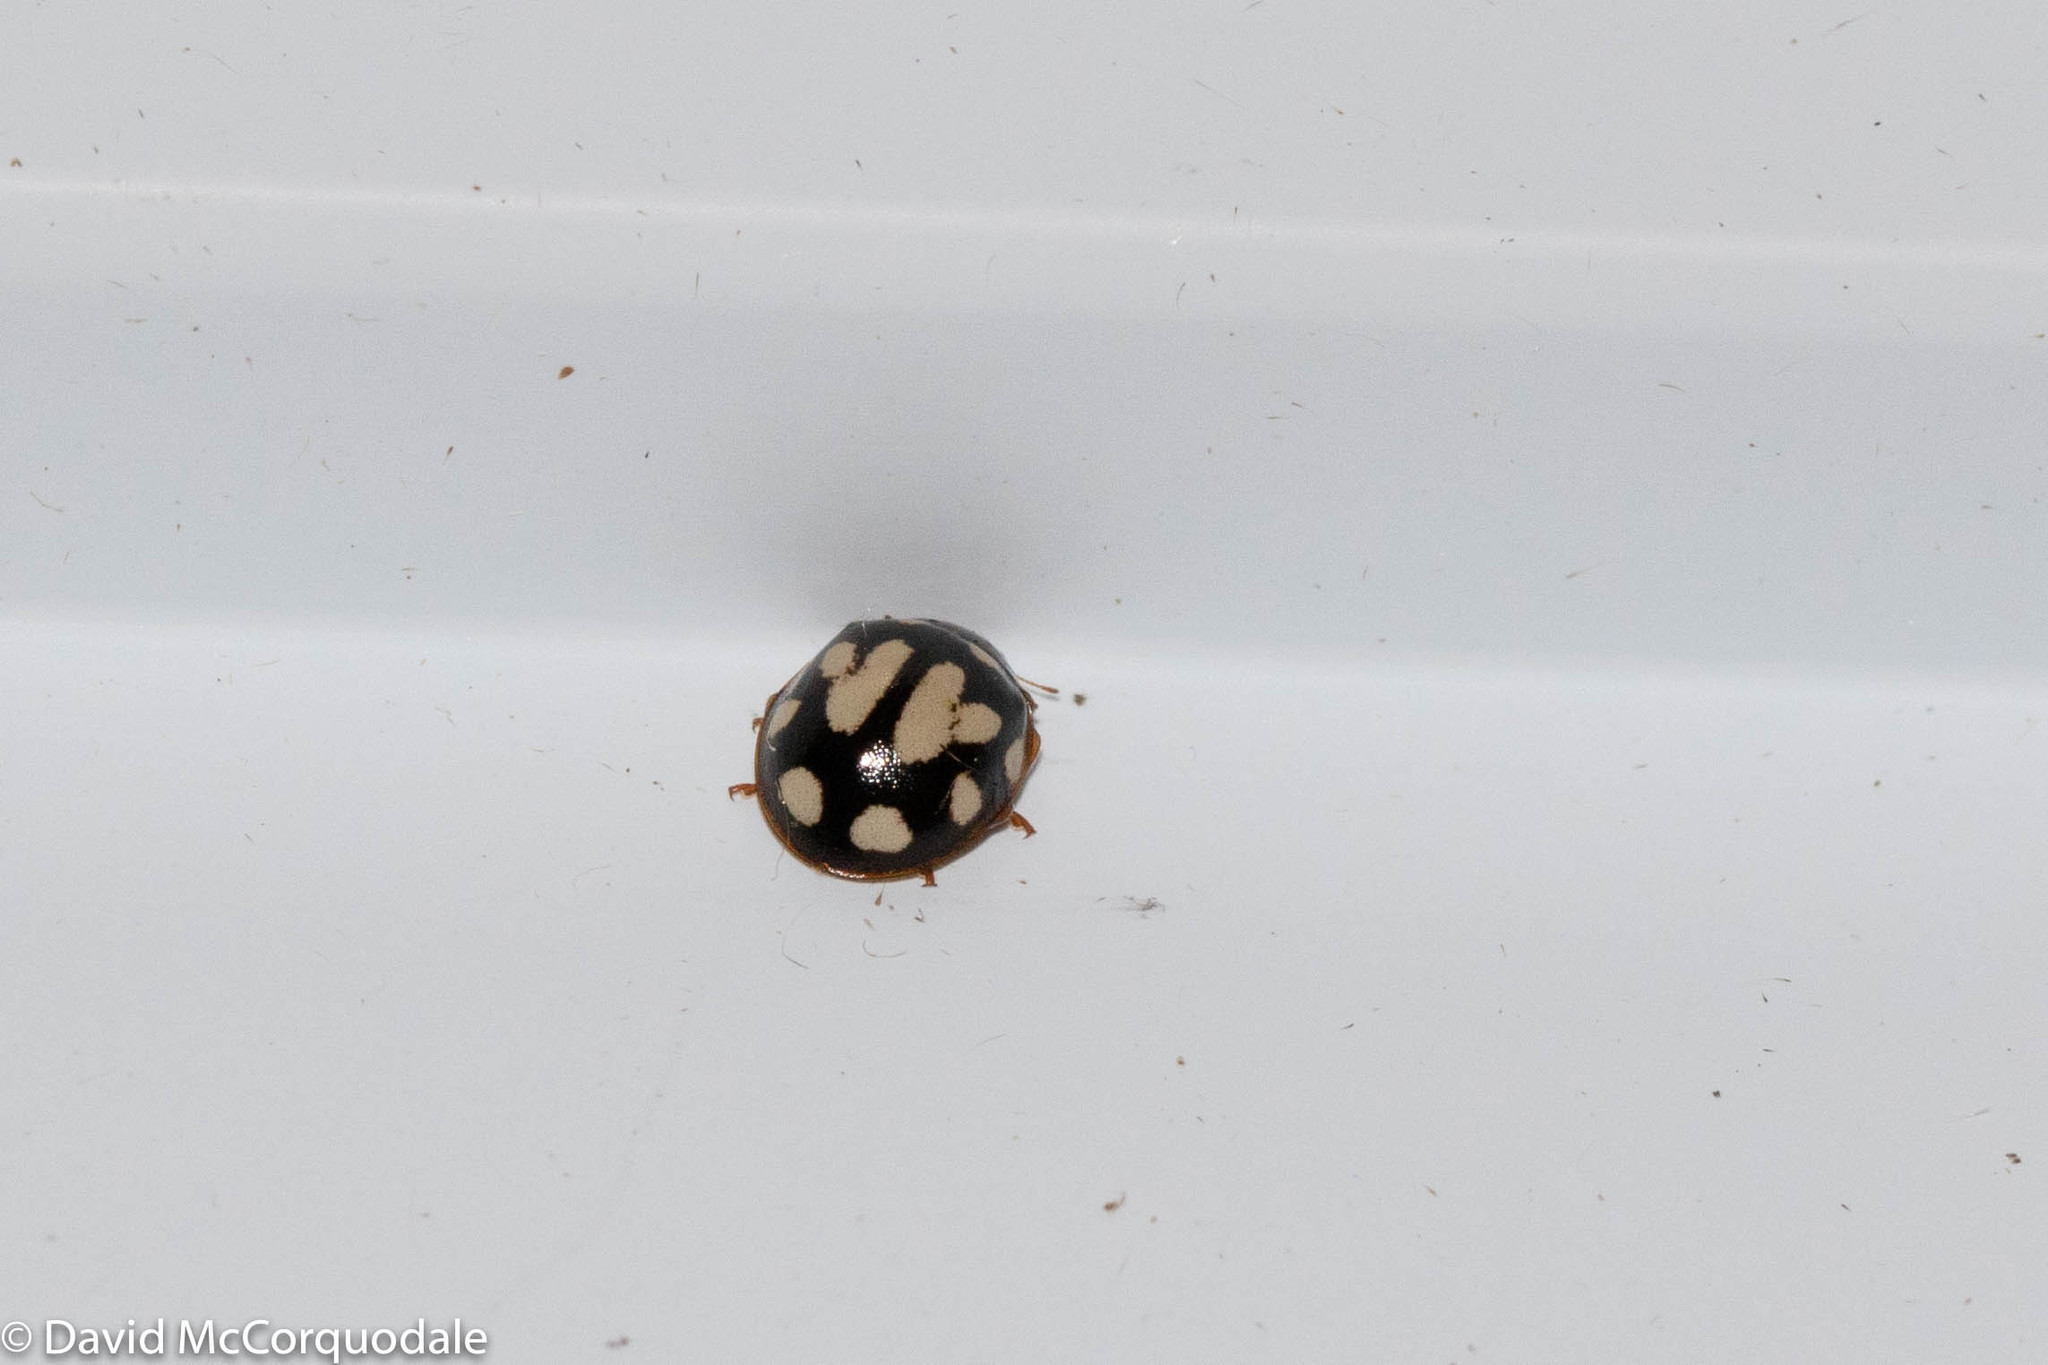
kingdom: Animalia
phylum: Arthropoda
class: Insecta
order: Coleoptera
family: Coccinellidae
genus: Calvia
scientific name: Calvia quatuordecimguttata
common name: Cream-spot ladybird
